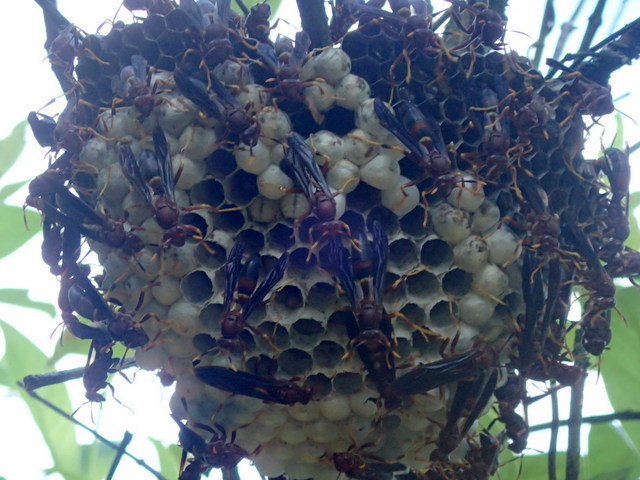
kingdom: Animalia
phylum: Arthropoda
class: Insecta
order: Hymenoptera
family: Eumenidae
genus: Polistes
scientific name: Polistes annularis
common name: Ringed paper wasp
